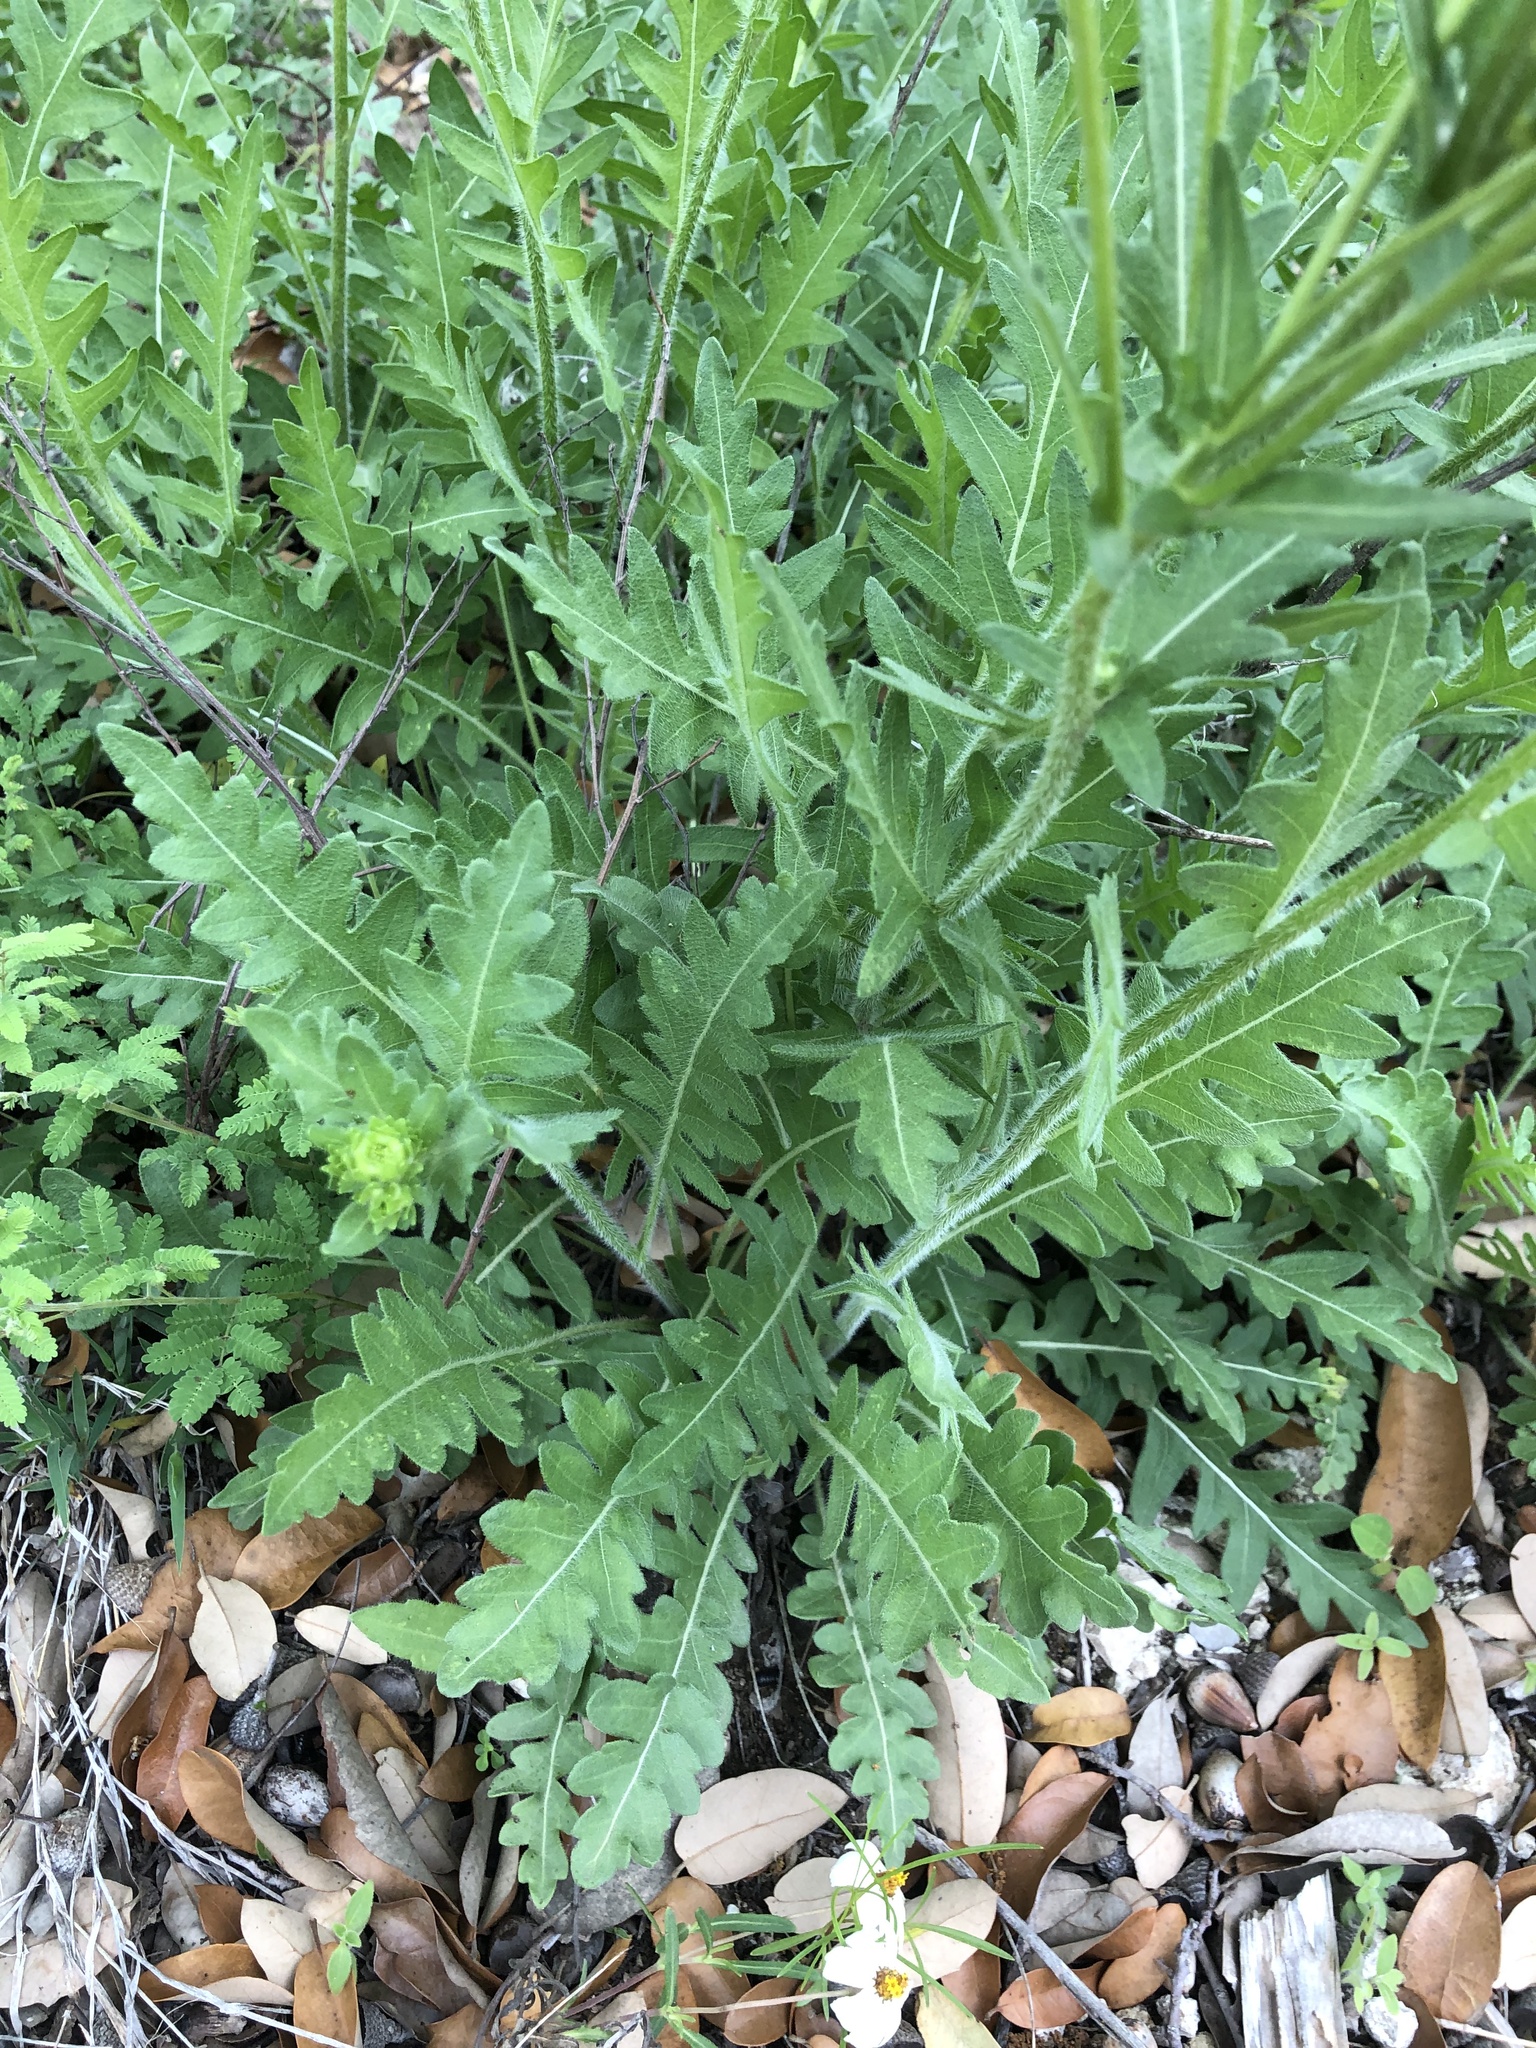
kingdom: Plantae
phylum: Tracheophyta
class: Magnoliopsida
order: Asterales
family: Asteraceae
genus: Engelmannia
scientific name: Engelmannia peristenia
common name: Engelmann's daisy
